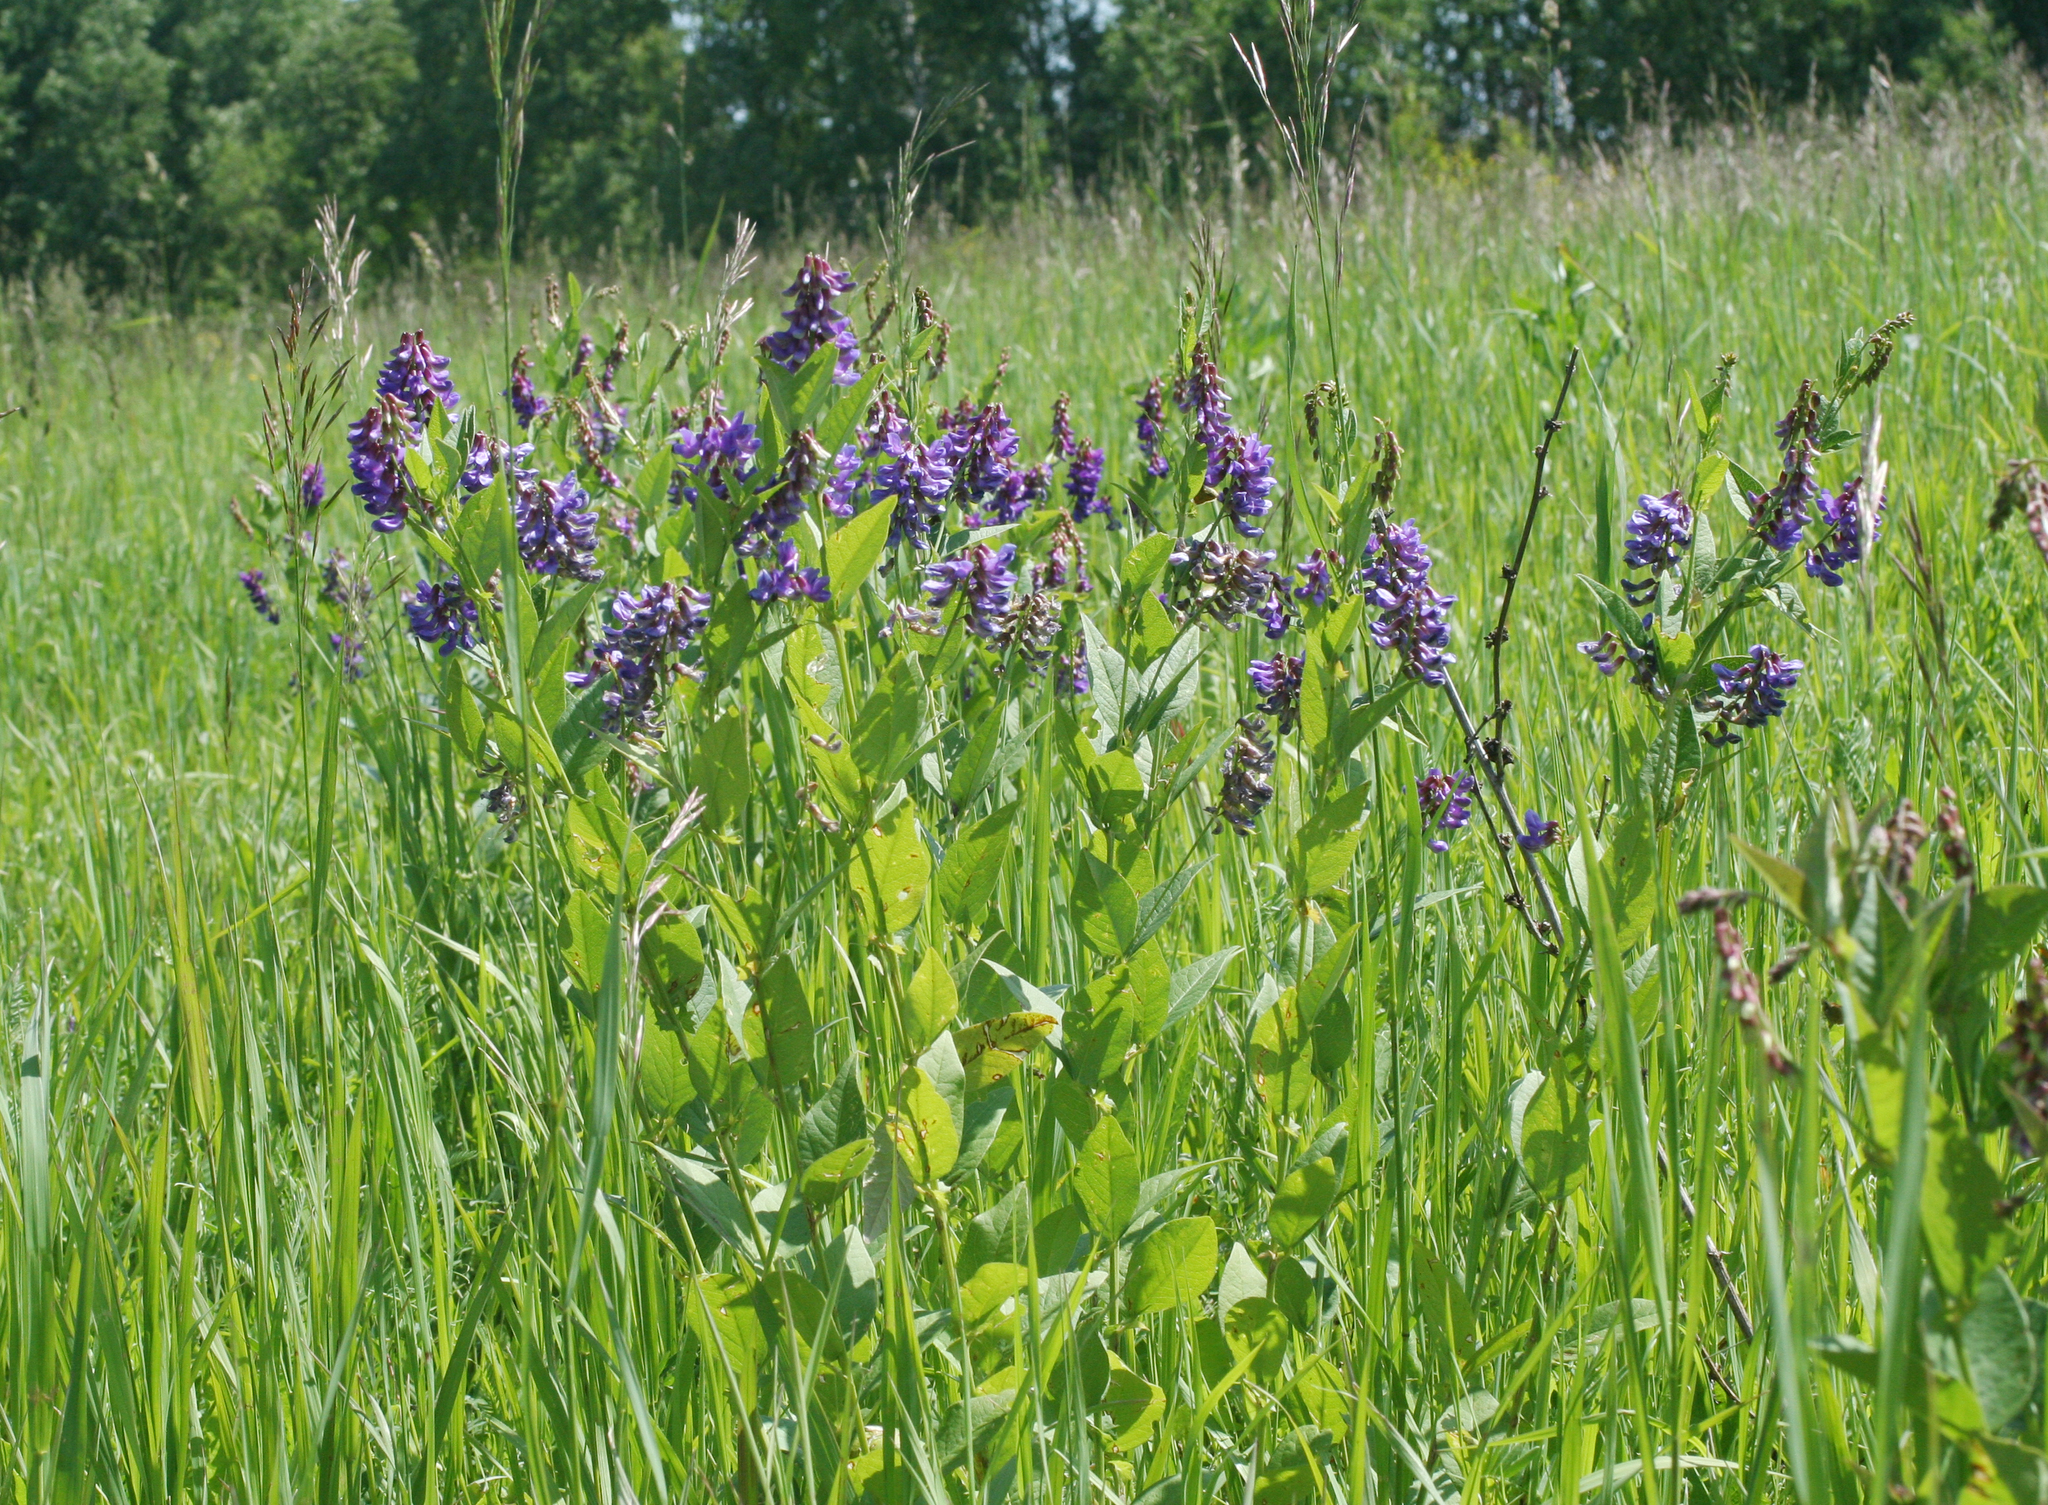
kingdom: Plantae
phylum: Tracheophyta
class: Magnoliopsida
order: Fabales
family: Fabaceae
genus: Vicia
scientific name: Vicia unijuga
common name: Two-leaf vetch
